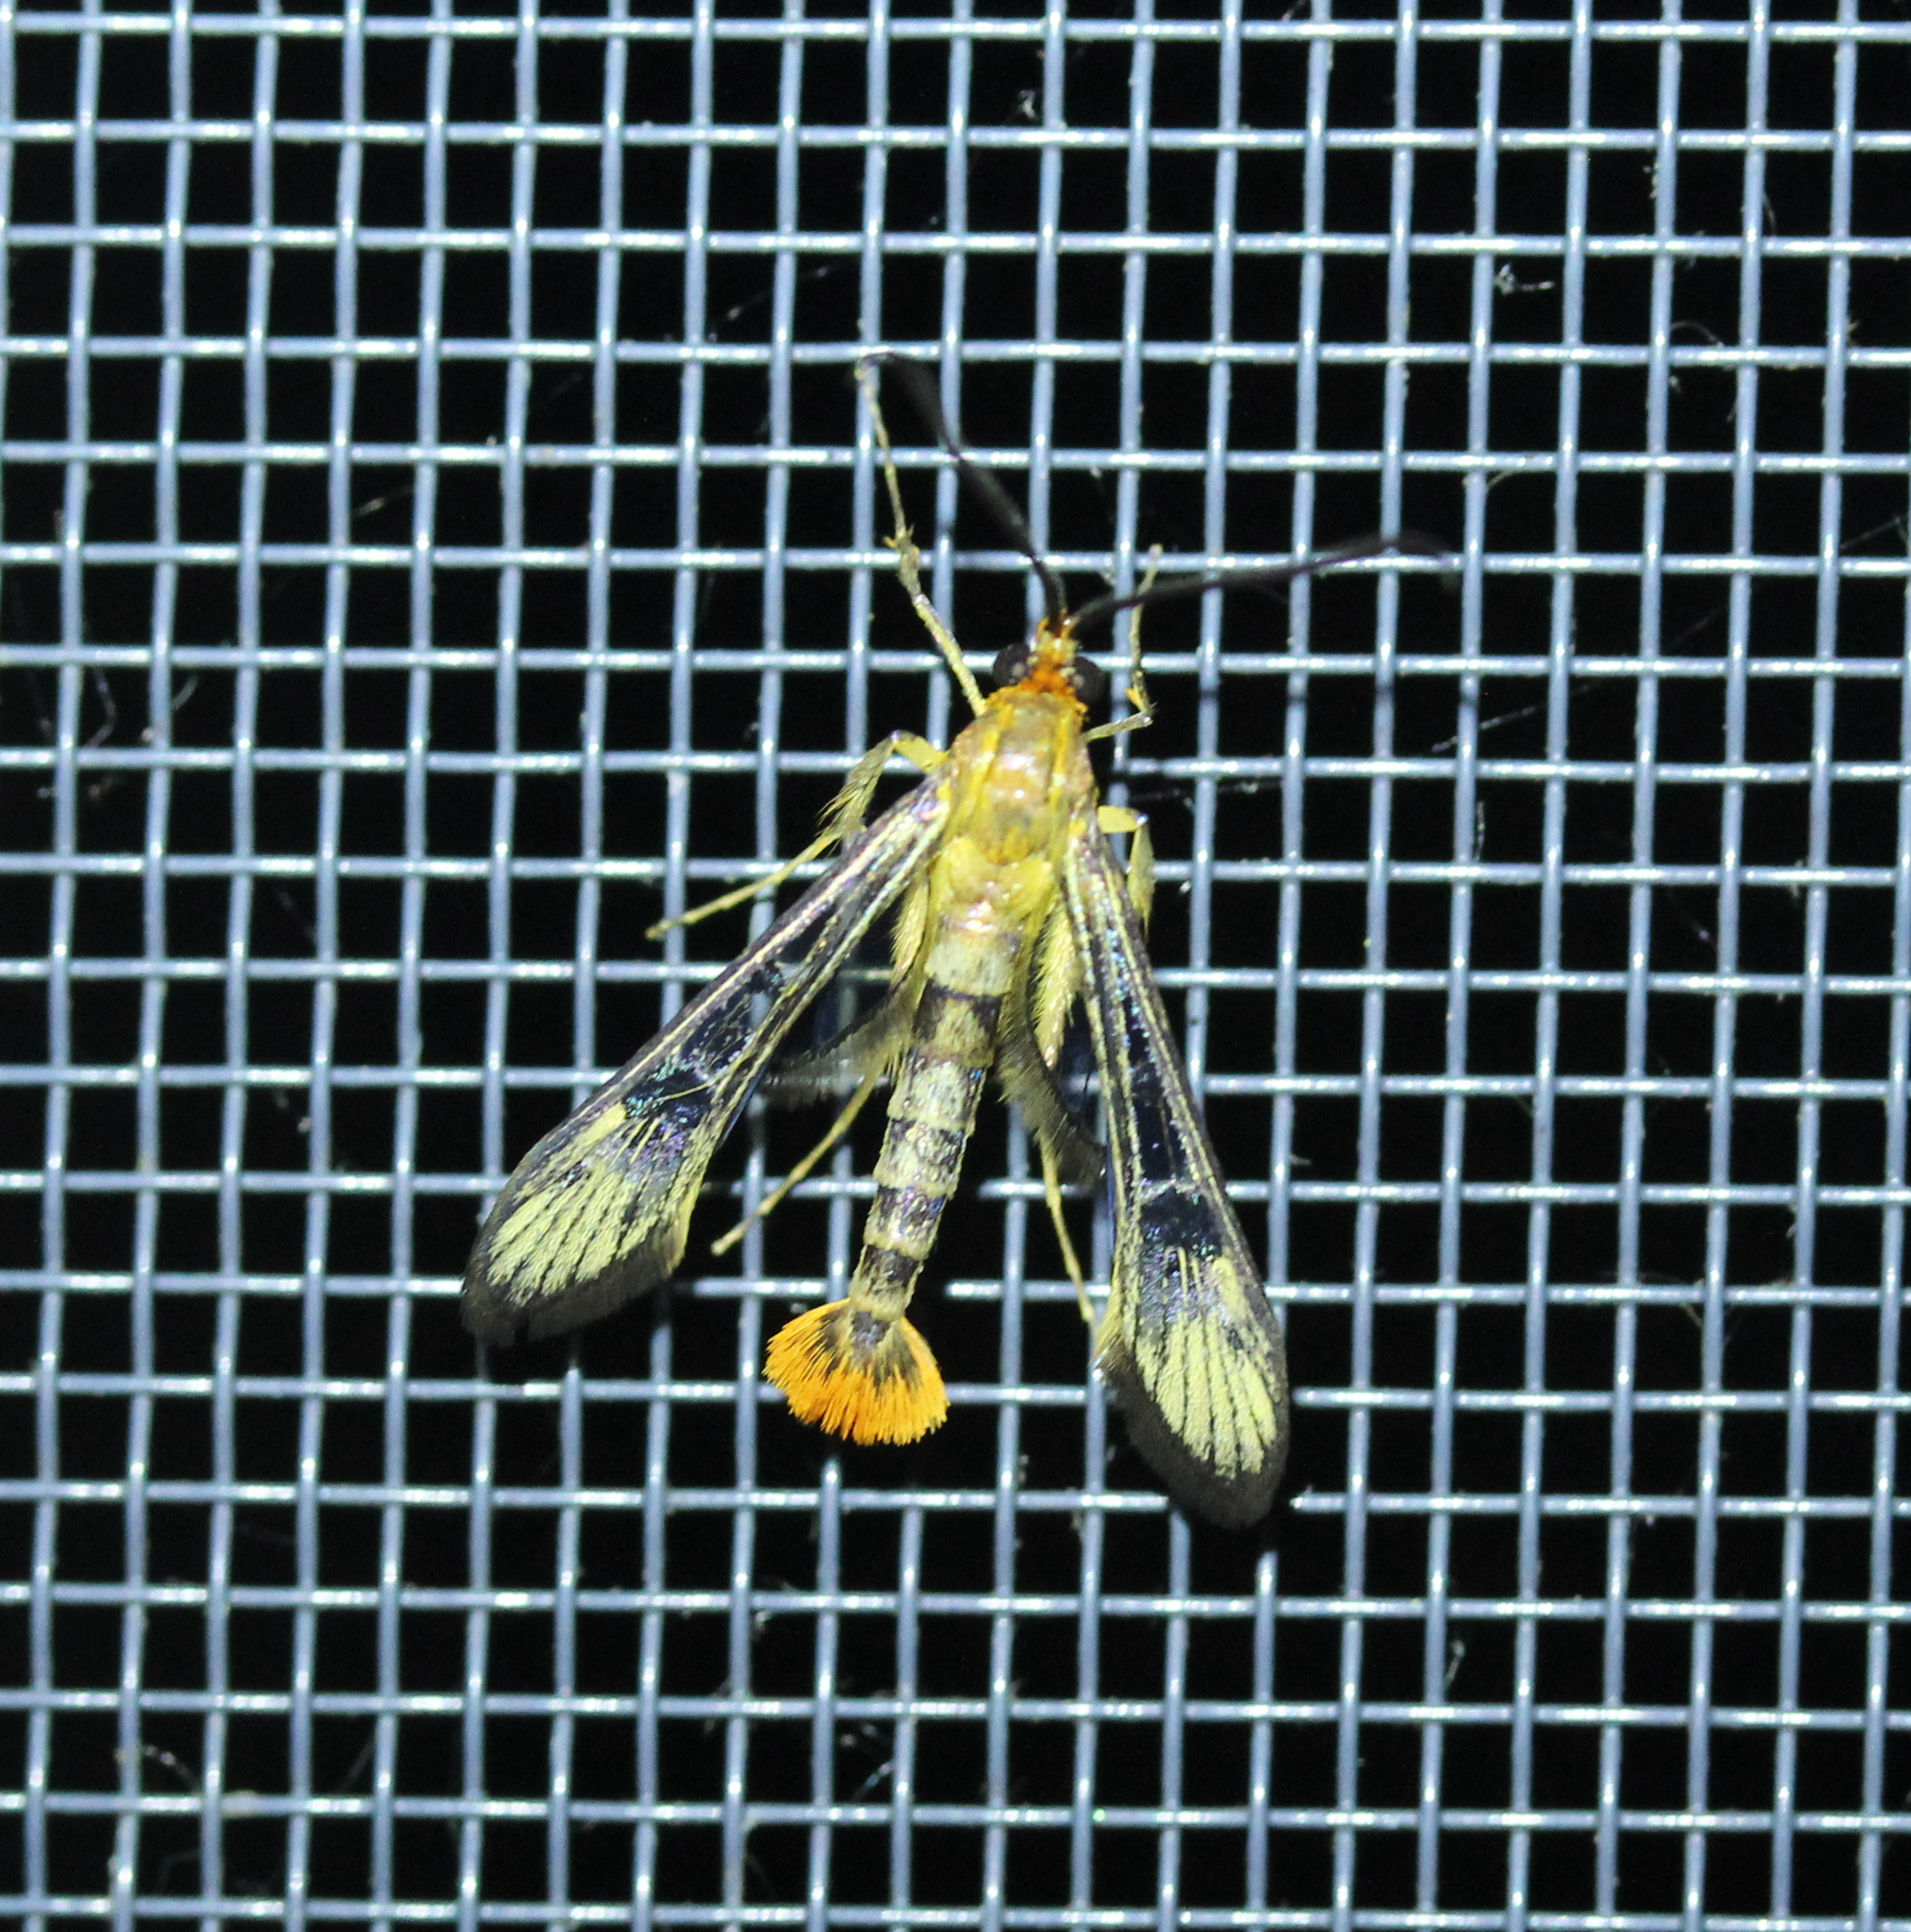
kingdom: Animalia
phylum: Arthropoda
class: Insecta
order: Lepidoptera
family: Sesiidae
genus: Synanthedon
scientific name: Synanthedon acerni
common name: Maple callus borer moth
